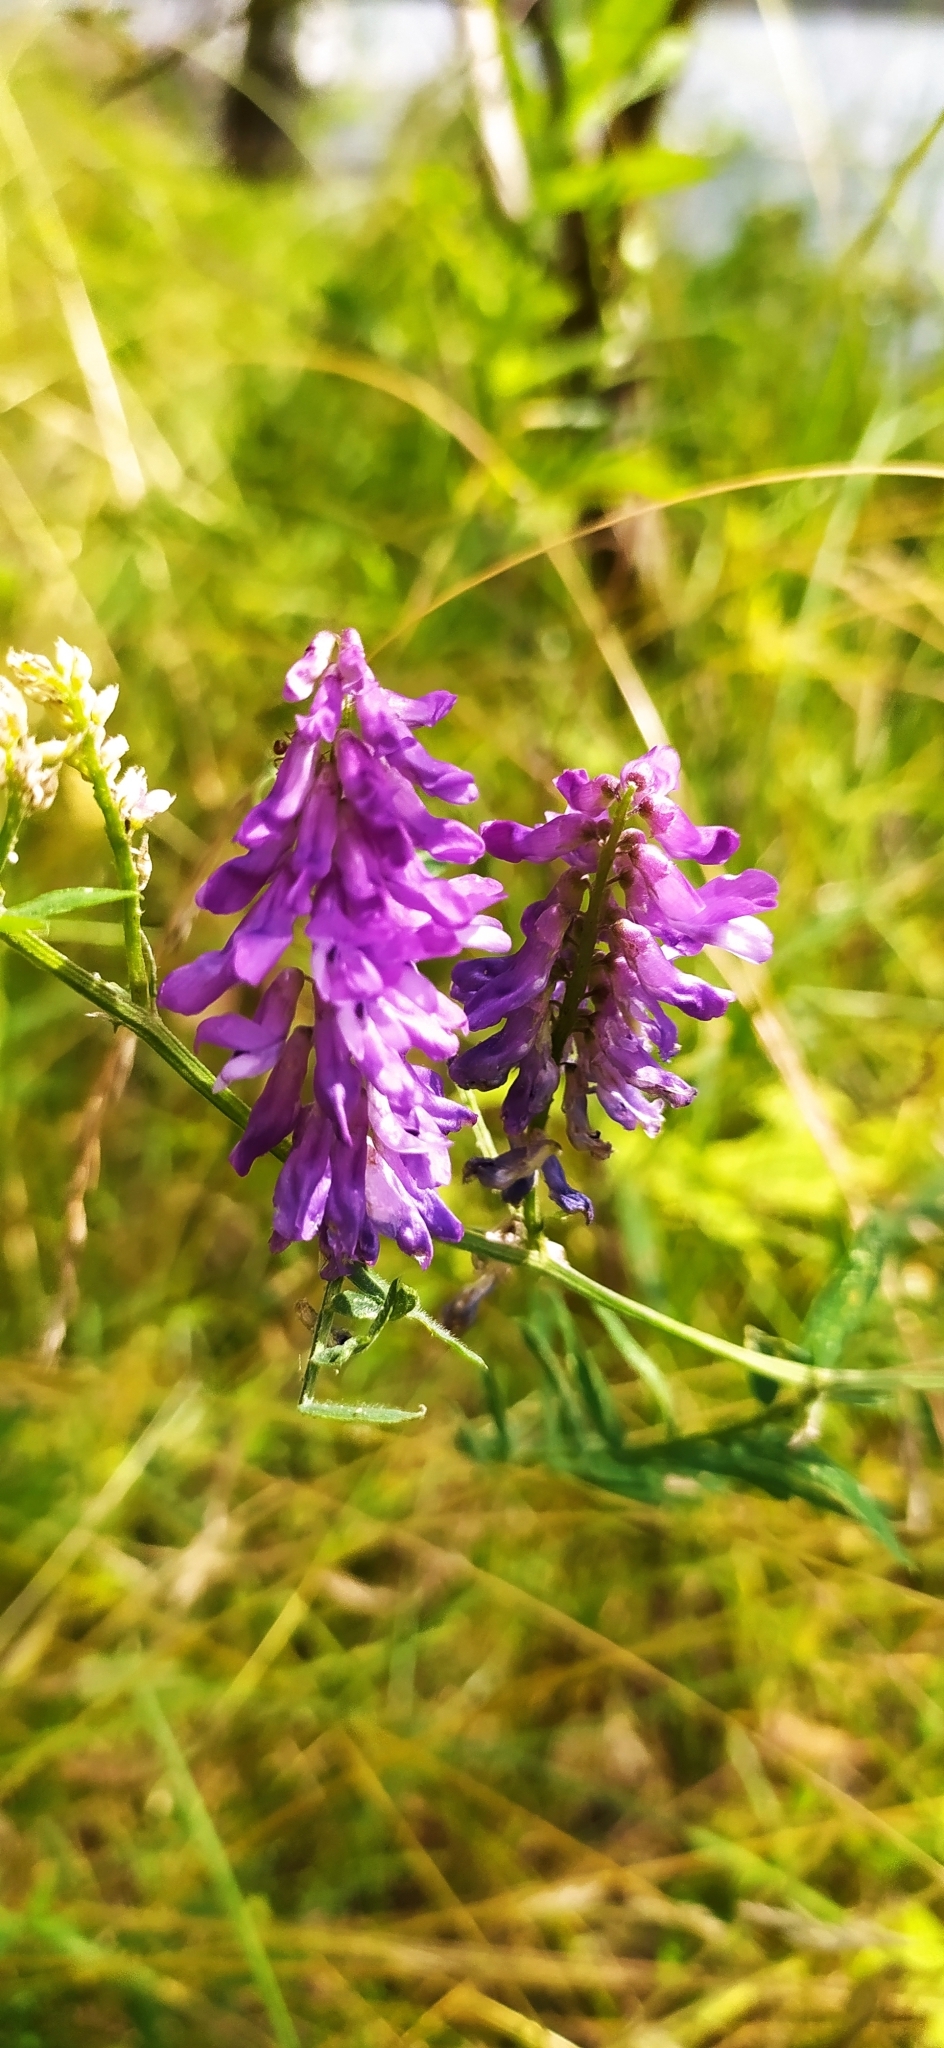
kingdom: Plantae
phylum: Tracheophyta
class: Magnoliopsida
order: Fabales
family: Fabaceae
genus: Vicia
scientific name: Vicia cracca
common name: Bird vetch
